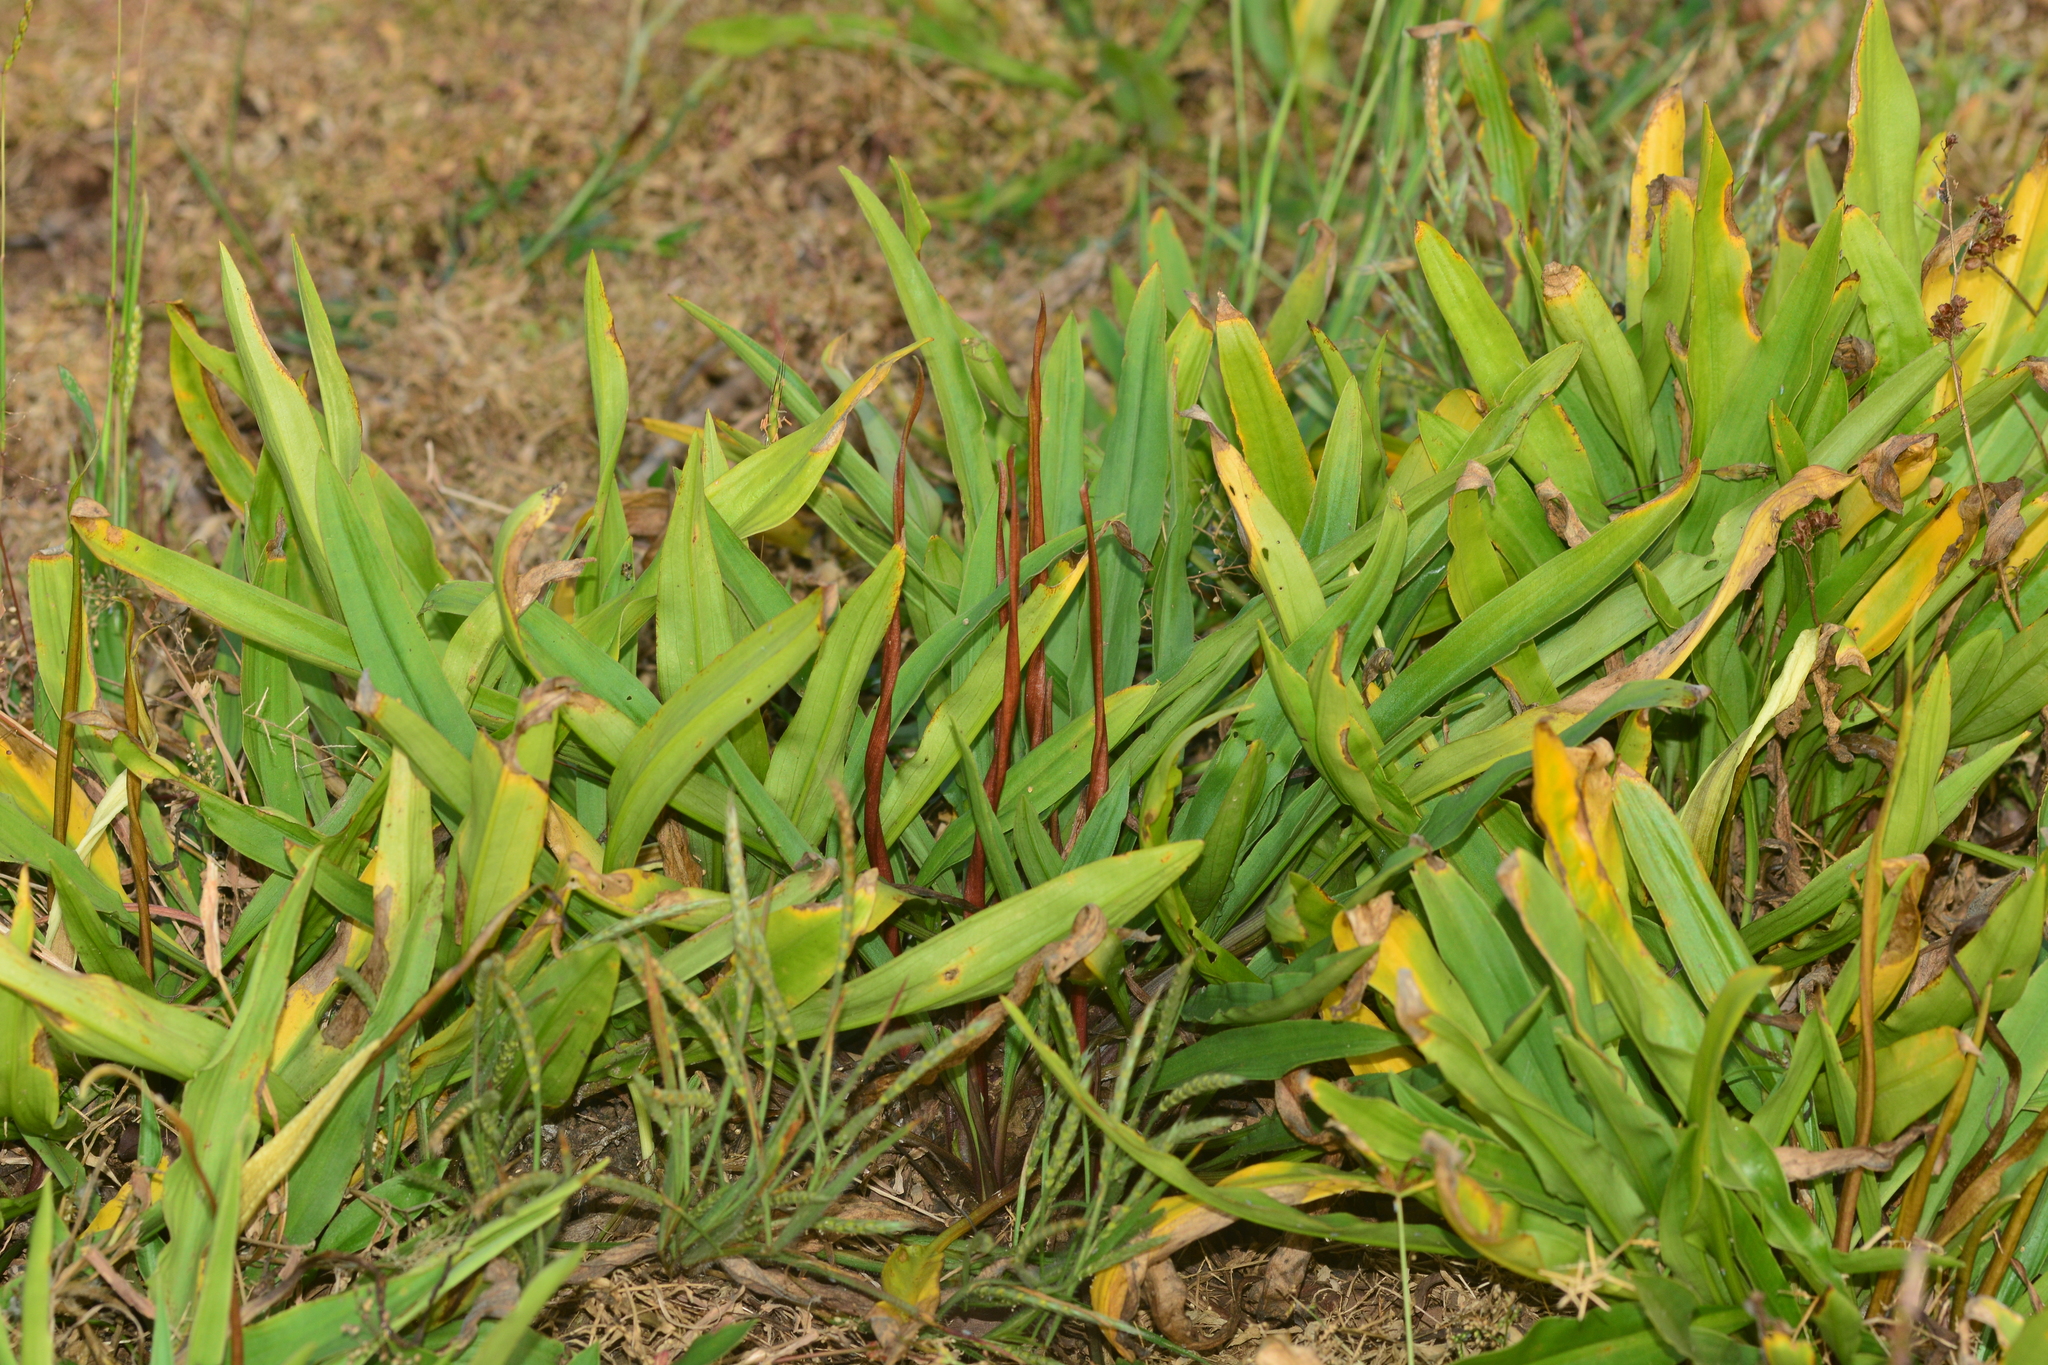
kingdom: Plantae
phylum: Tracheophyta
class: Liliopsida
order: Alismatales
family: Araceae
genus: Cryptocoryne
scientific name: Cryptocoryne spiralis
